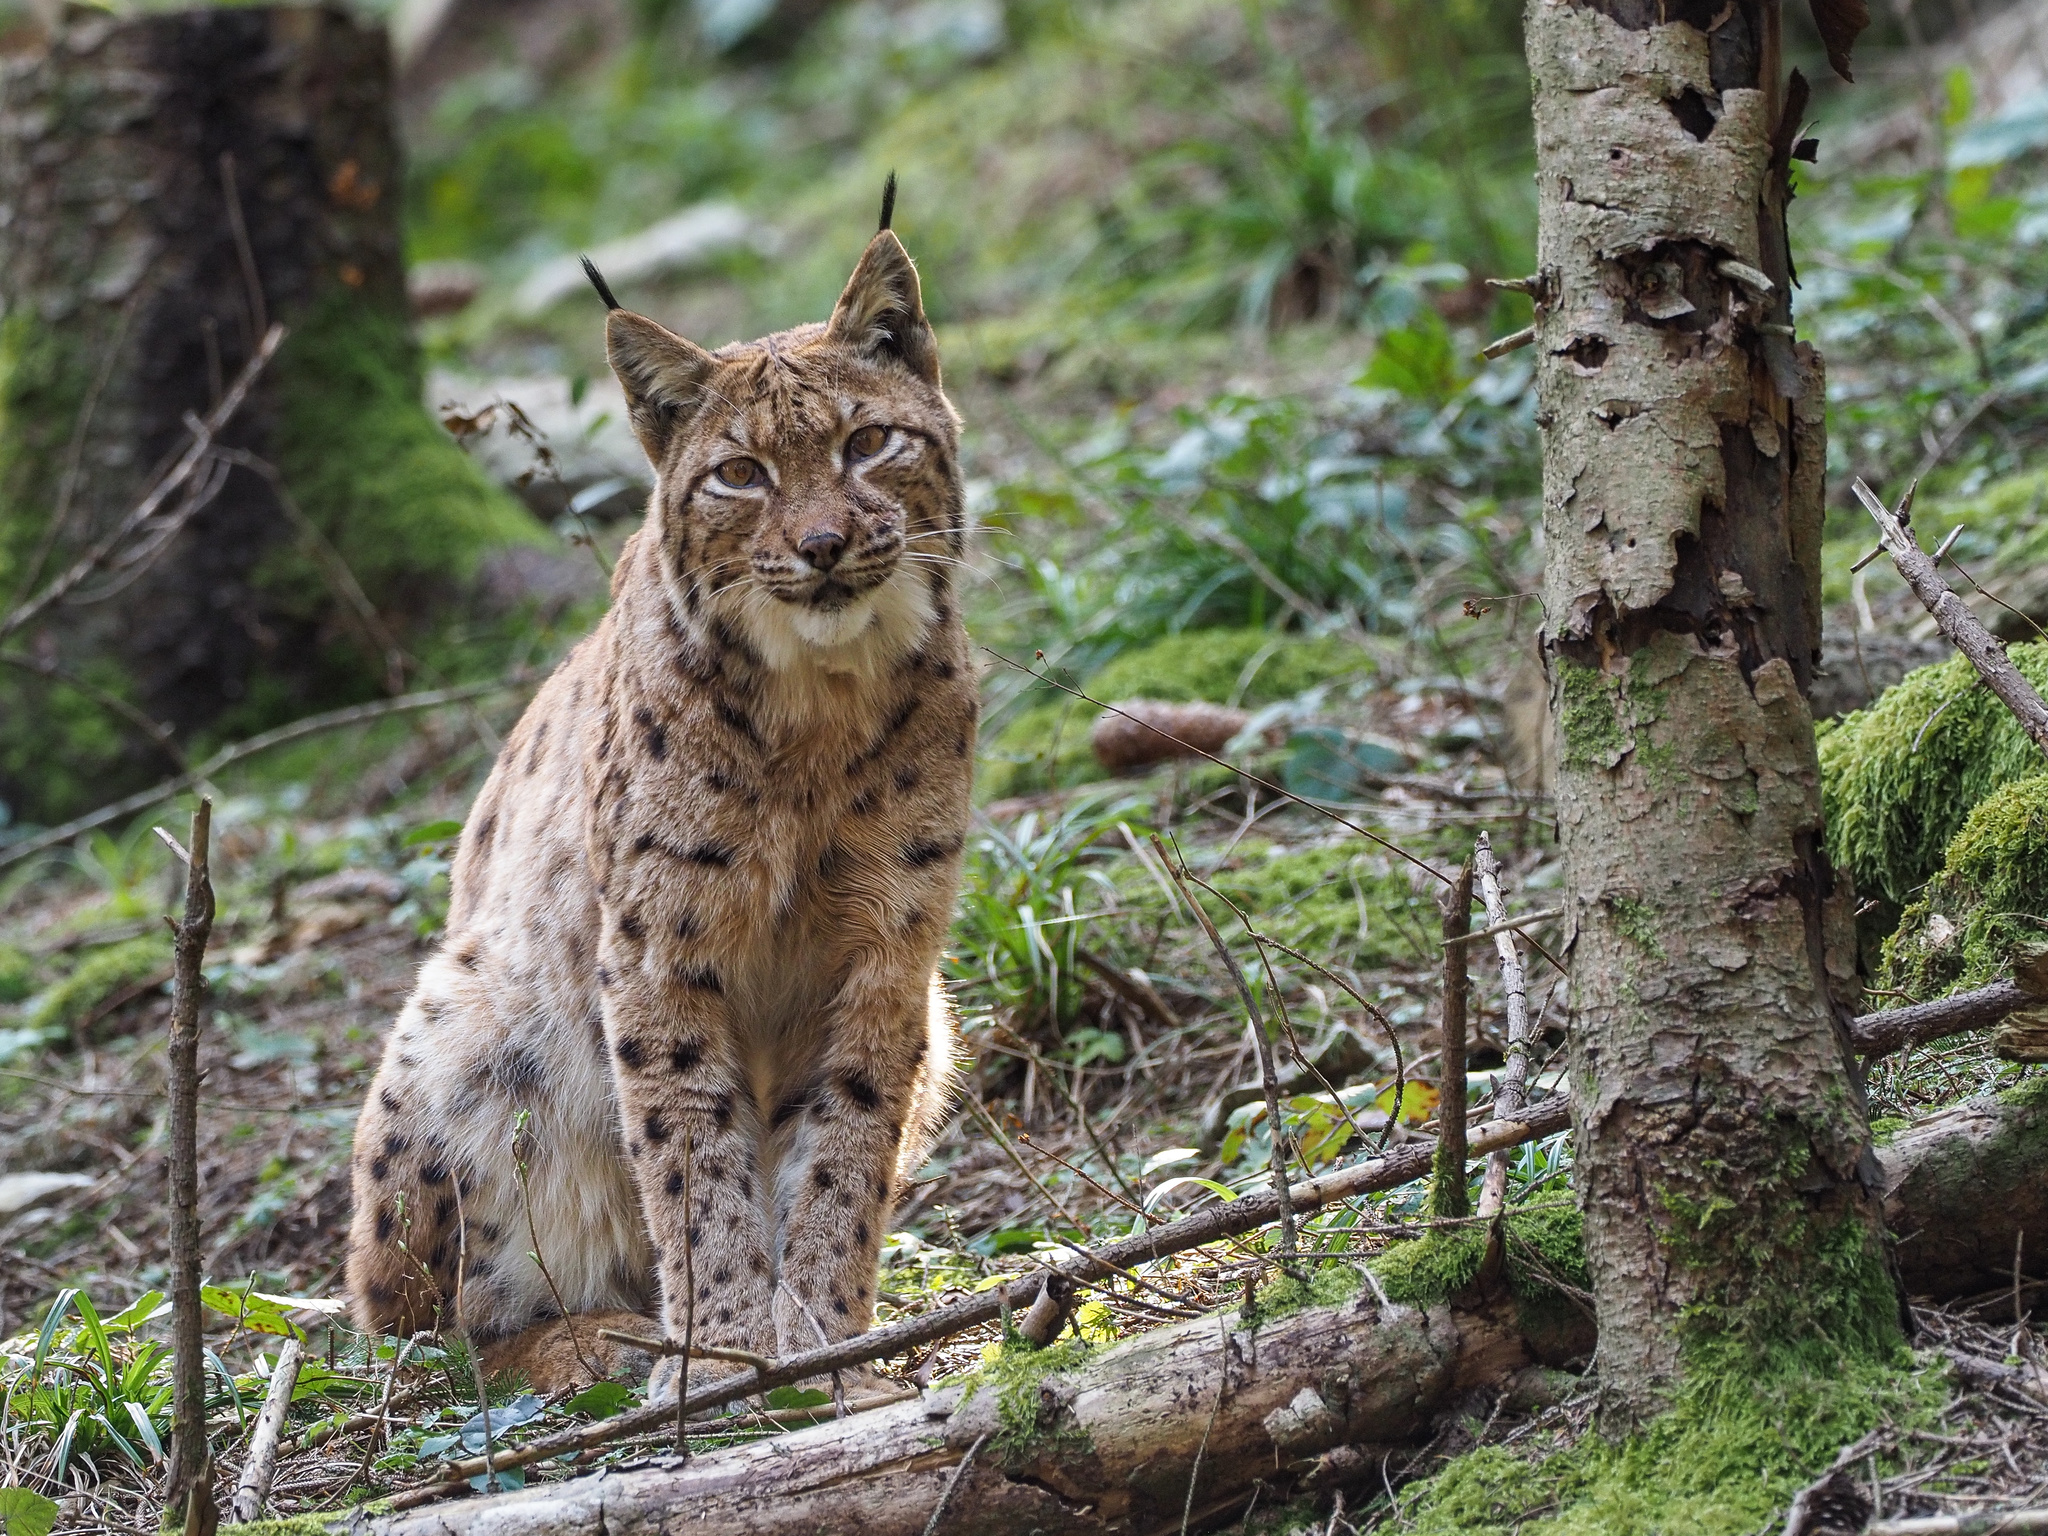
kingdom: Animalia
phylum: Chordata
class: Mammalia
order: Carnivora
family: Felidae
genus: Lynx
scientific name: Lynx lynx
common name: Eurasian lynx
